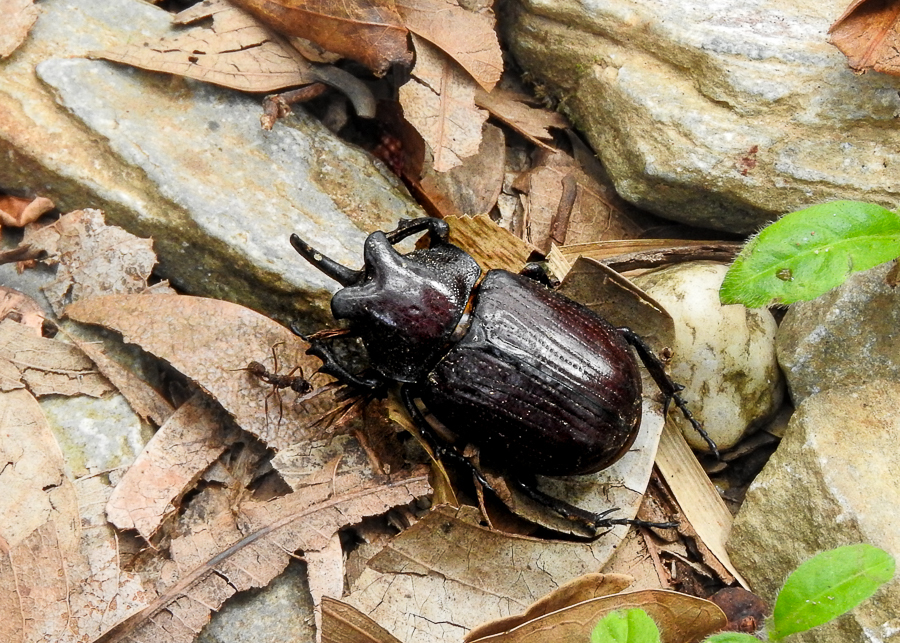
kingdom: Animalia
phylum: Arthropoda
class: Insecta
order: Coleoptera
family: Scarabaeidae
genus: Coelosis
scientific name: Coelosis biloba
